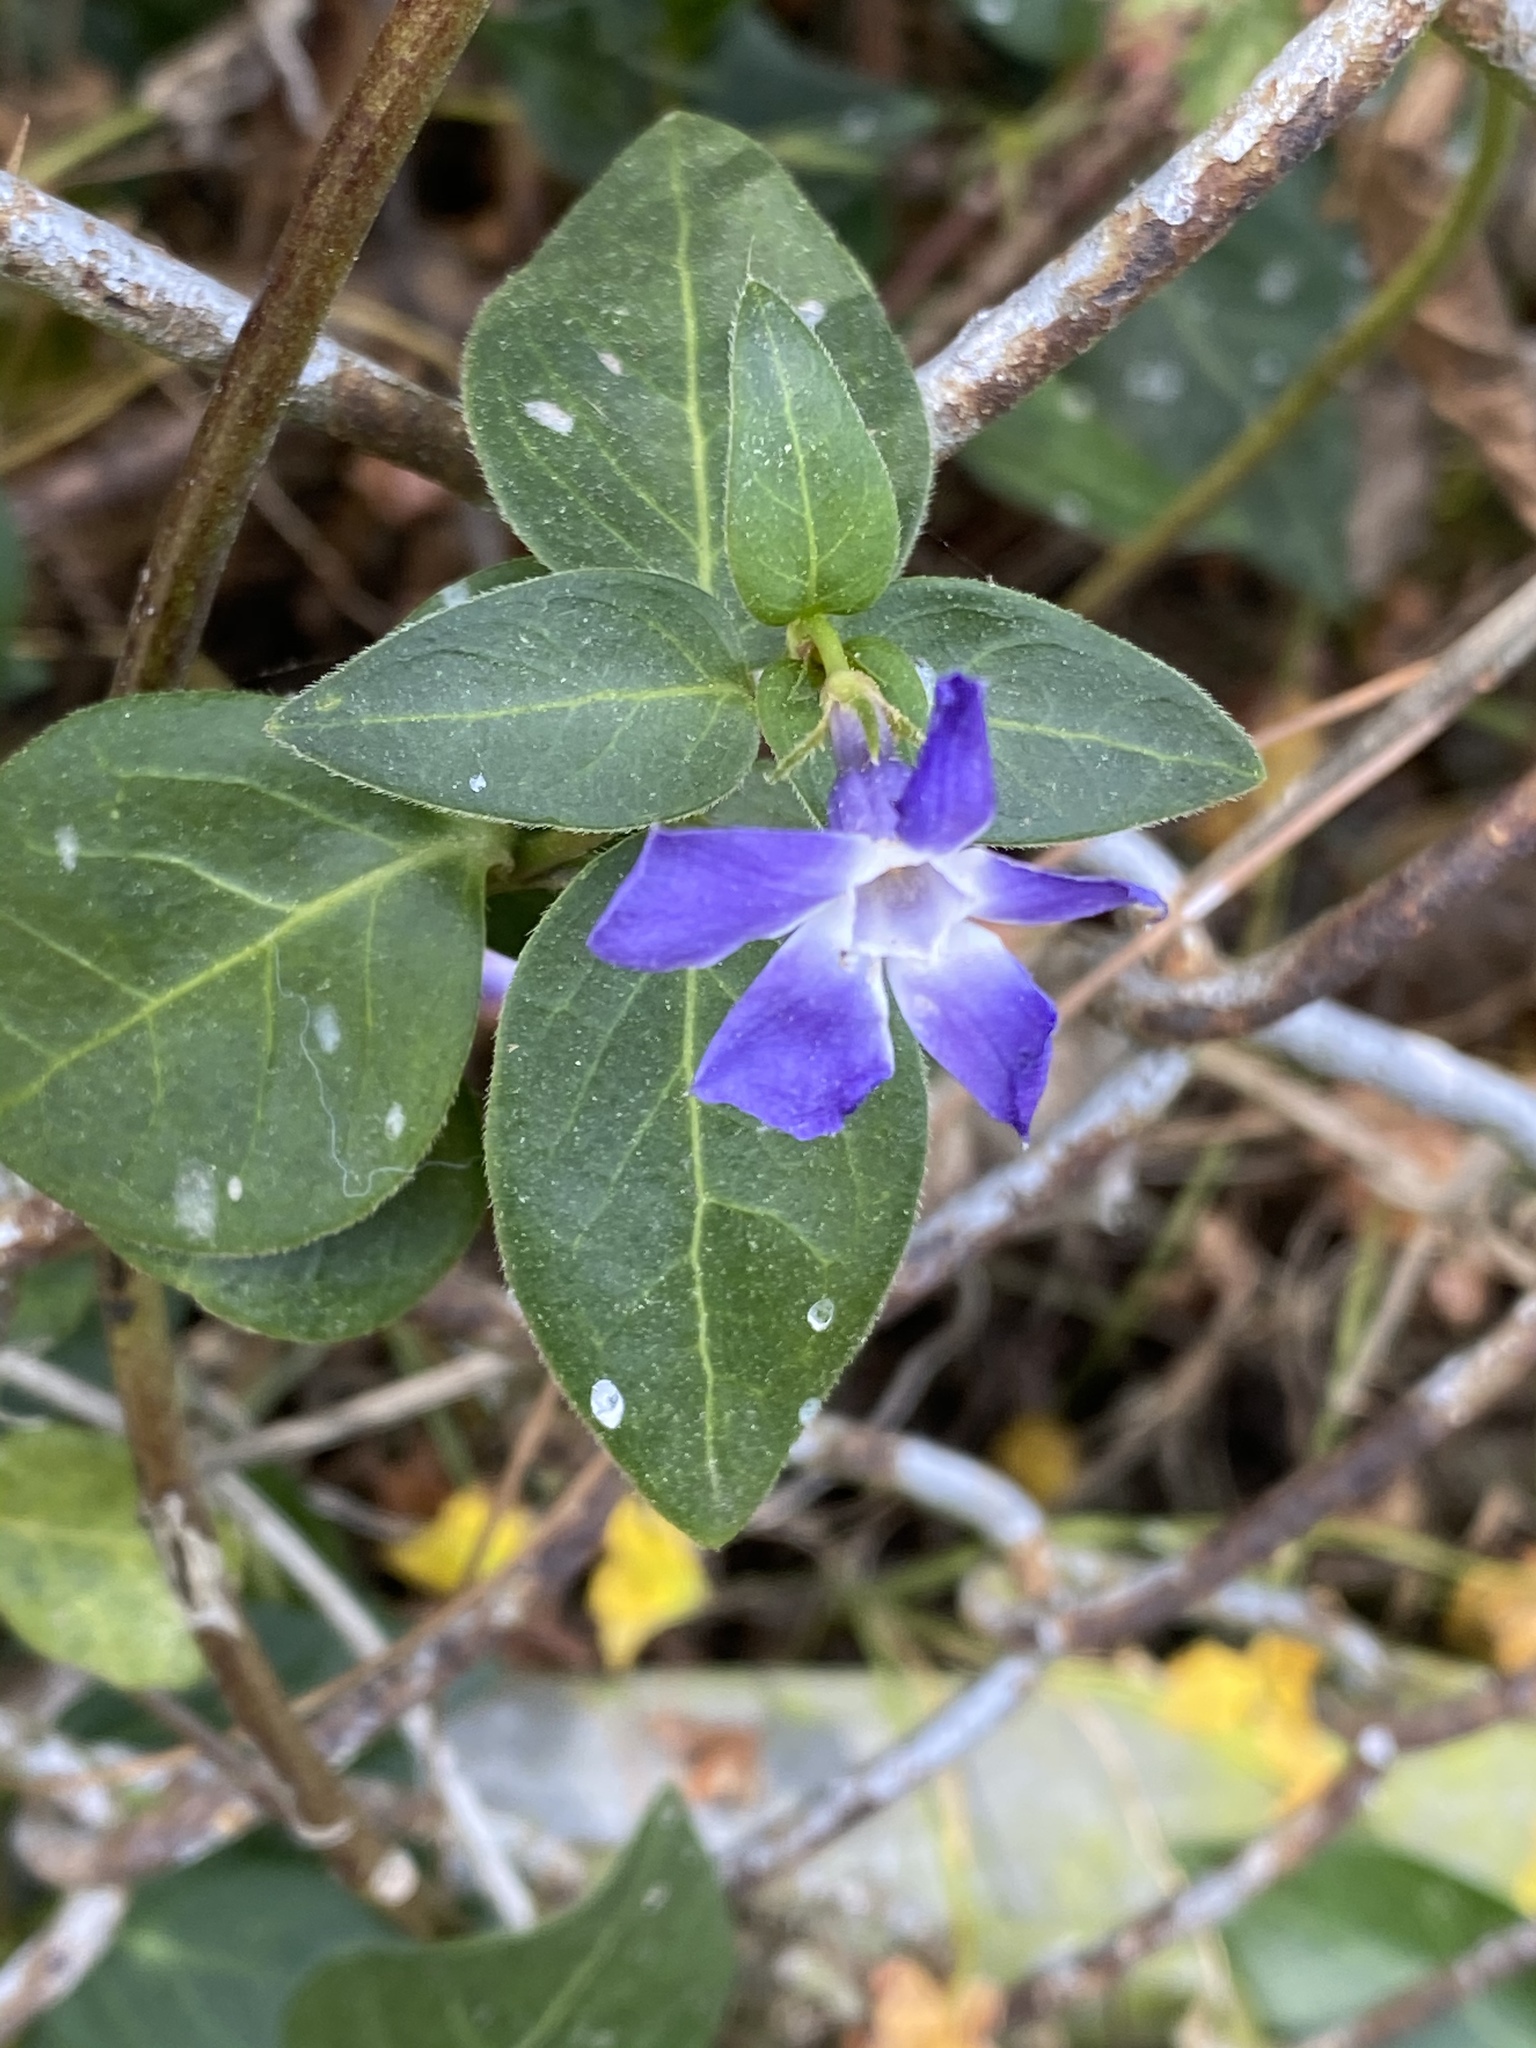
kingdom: Plantae
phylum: Tracheophyta
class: Magnoliopsida
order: Gentianales
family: Apocynaceae
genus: Vinca
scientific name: Vinca major
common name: Greater periwinkle
